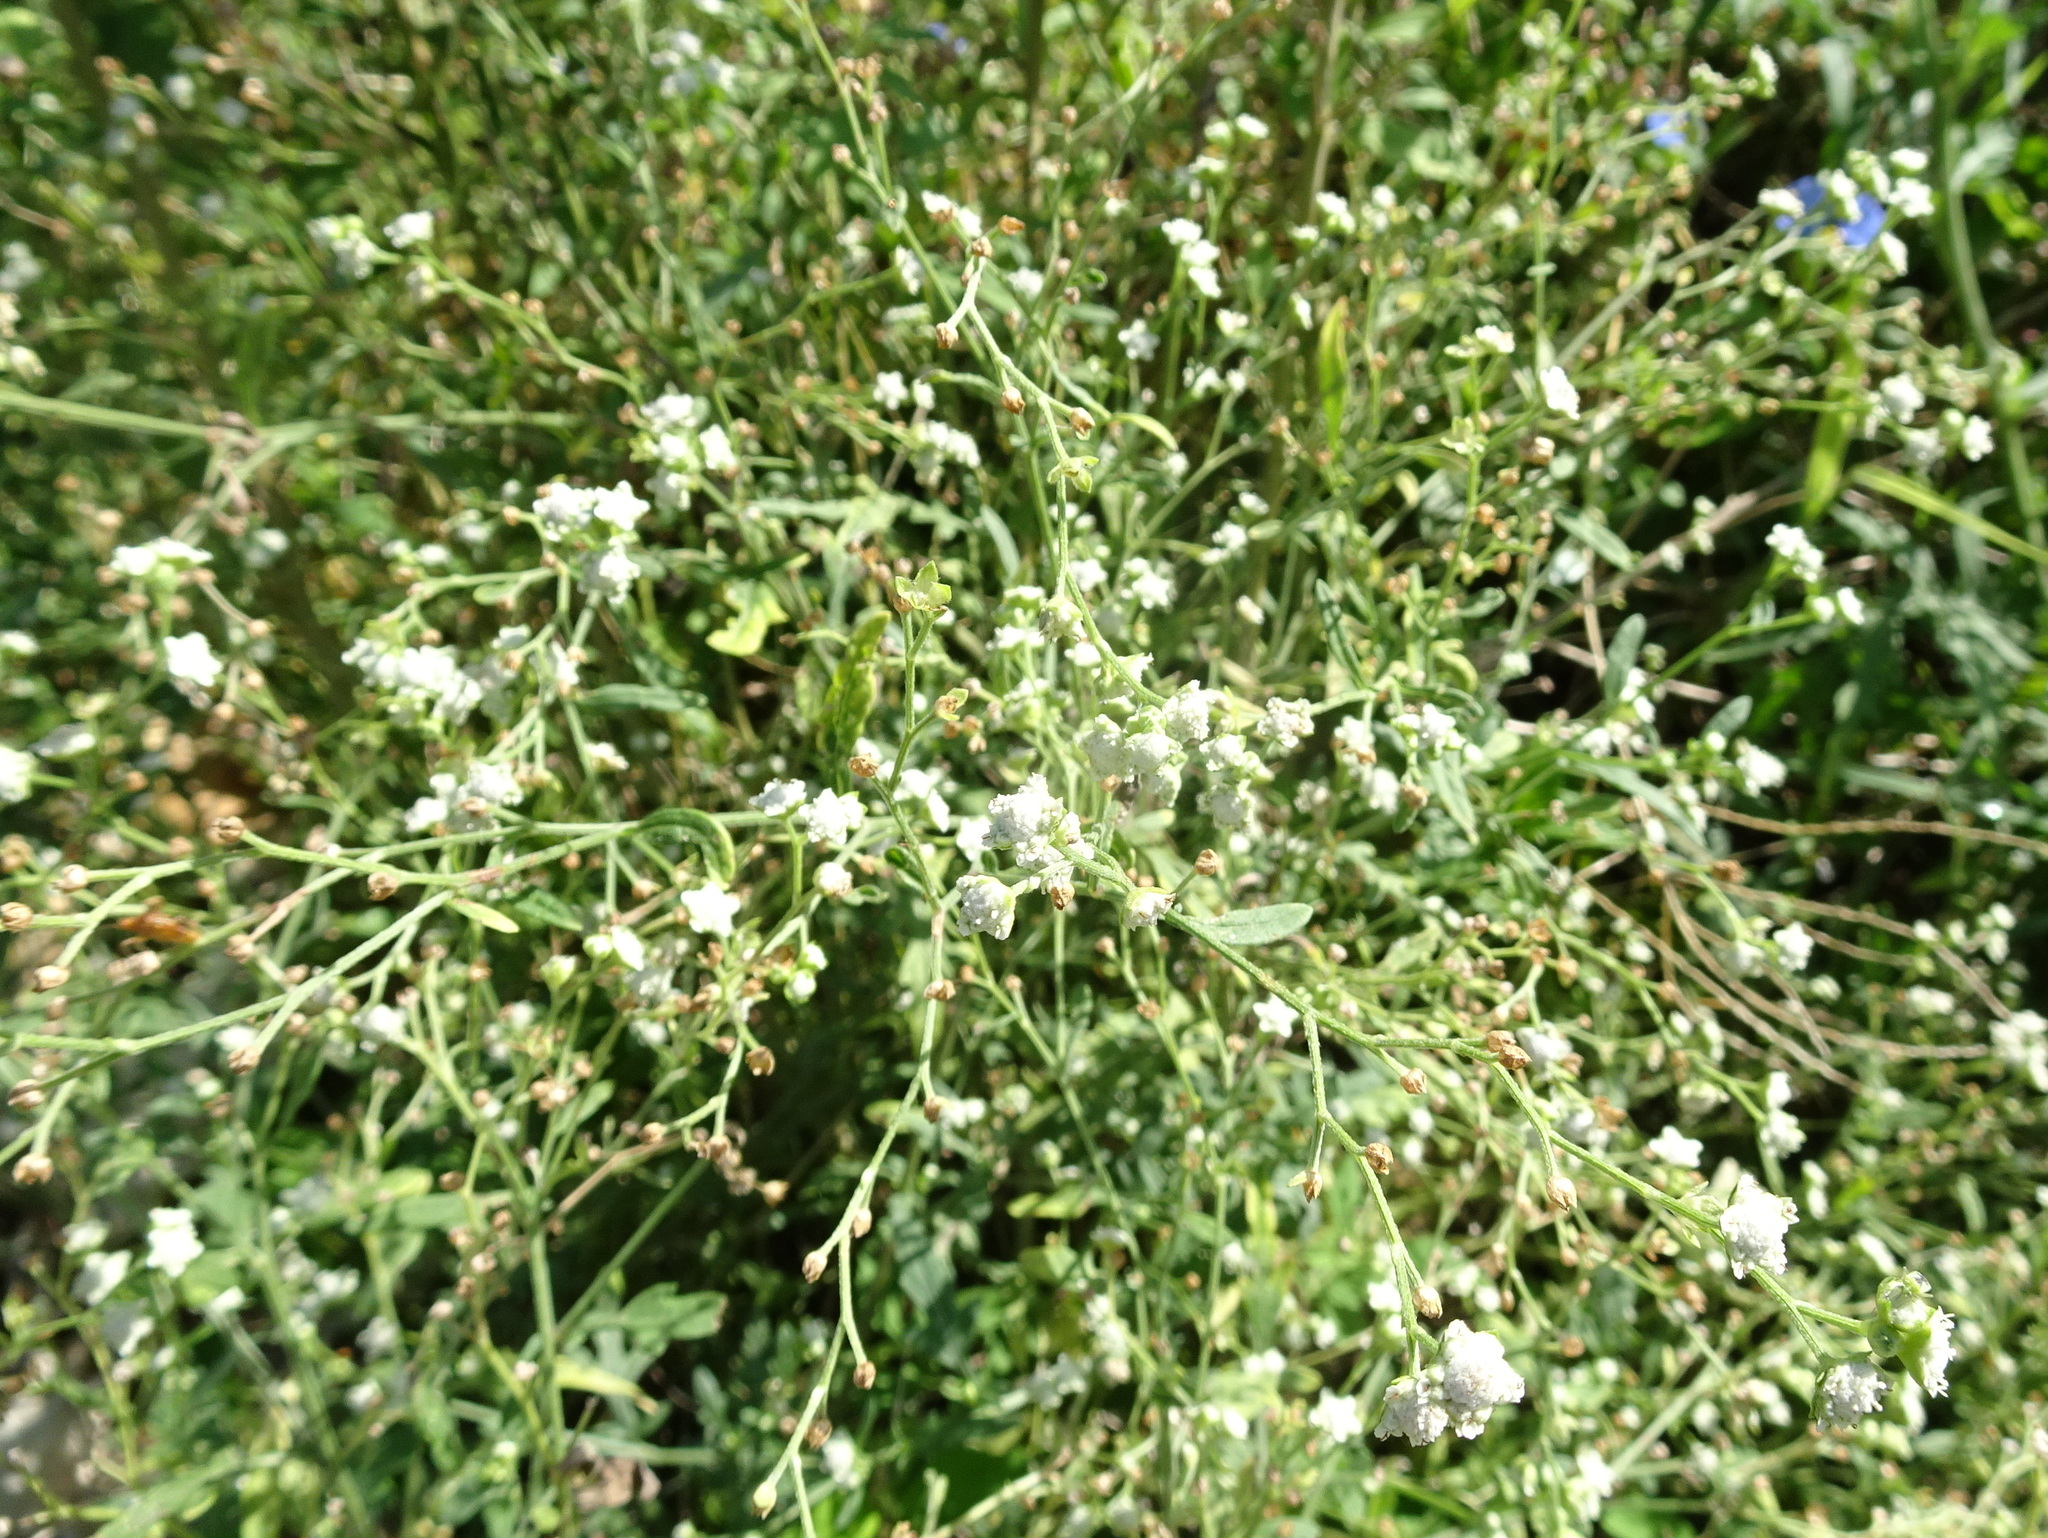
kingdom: Plantae
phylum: Tracheophyta
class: Magnoliopsida
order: Asterales
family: Asteraceae
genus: Parthenium
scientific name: Parthenium hysterophorus
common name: Santa maria feverfew
